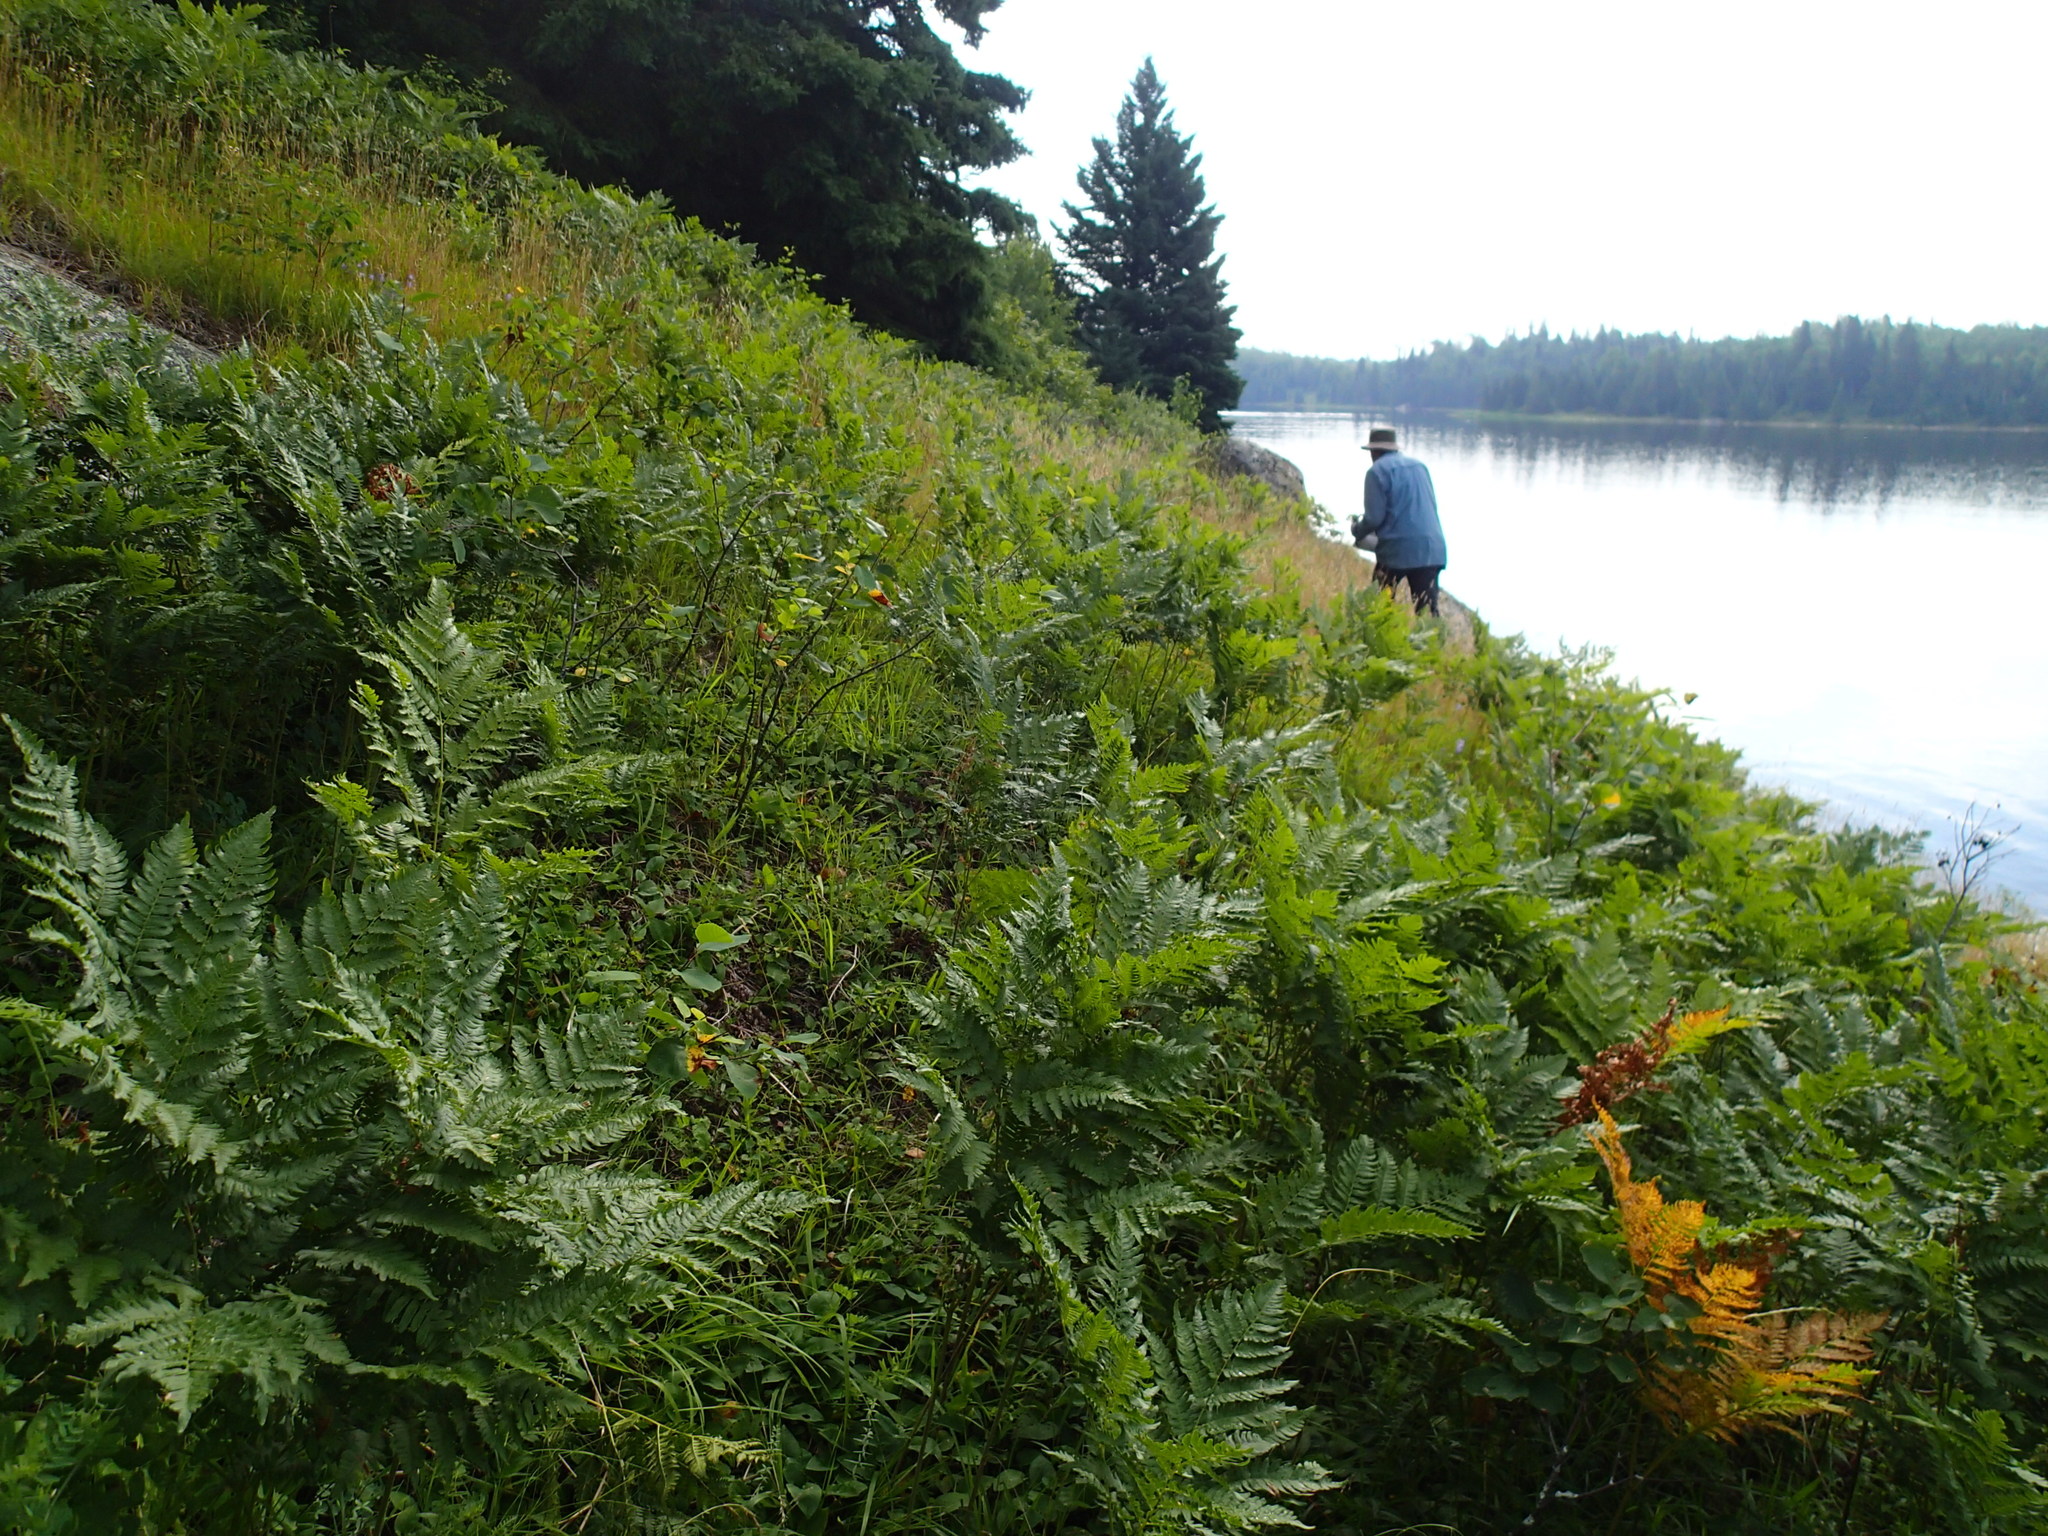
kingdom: Plantae
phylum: Tracheophyta
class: Polypodiopsida
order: Polypodiales
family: Dennstaedtiaceae
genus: Pteridium
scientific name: Pteridium aquilinum
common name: Bracken
